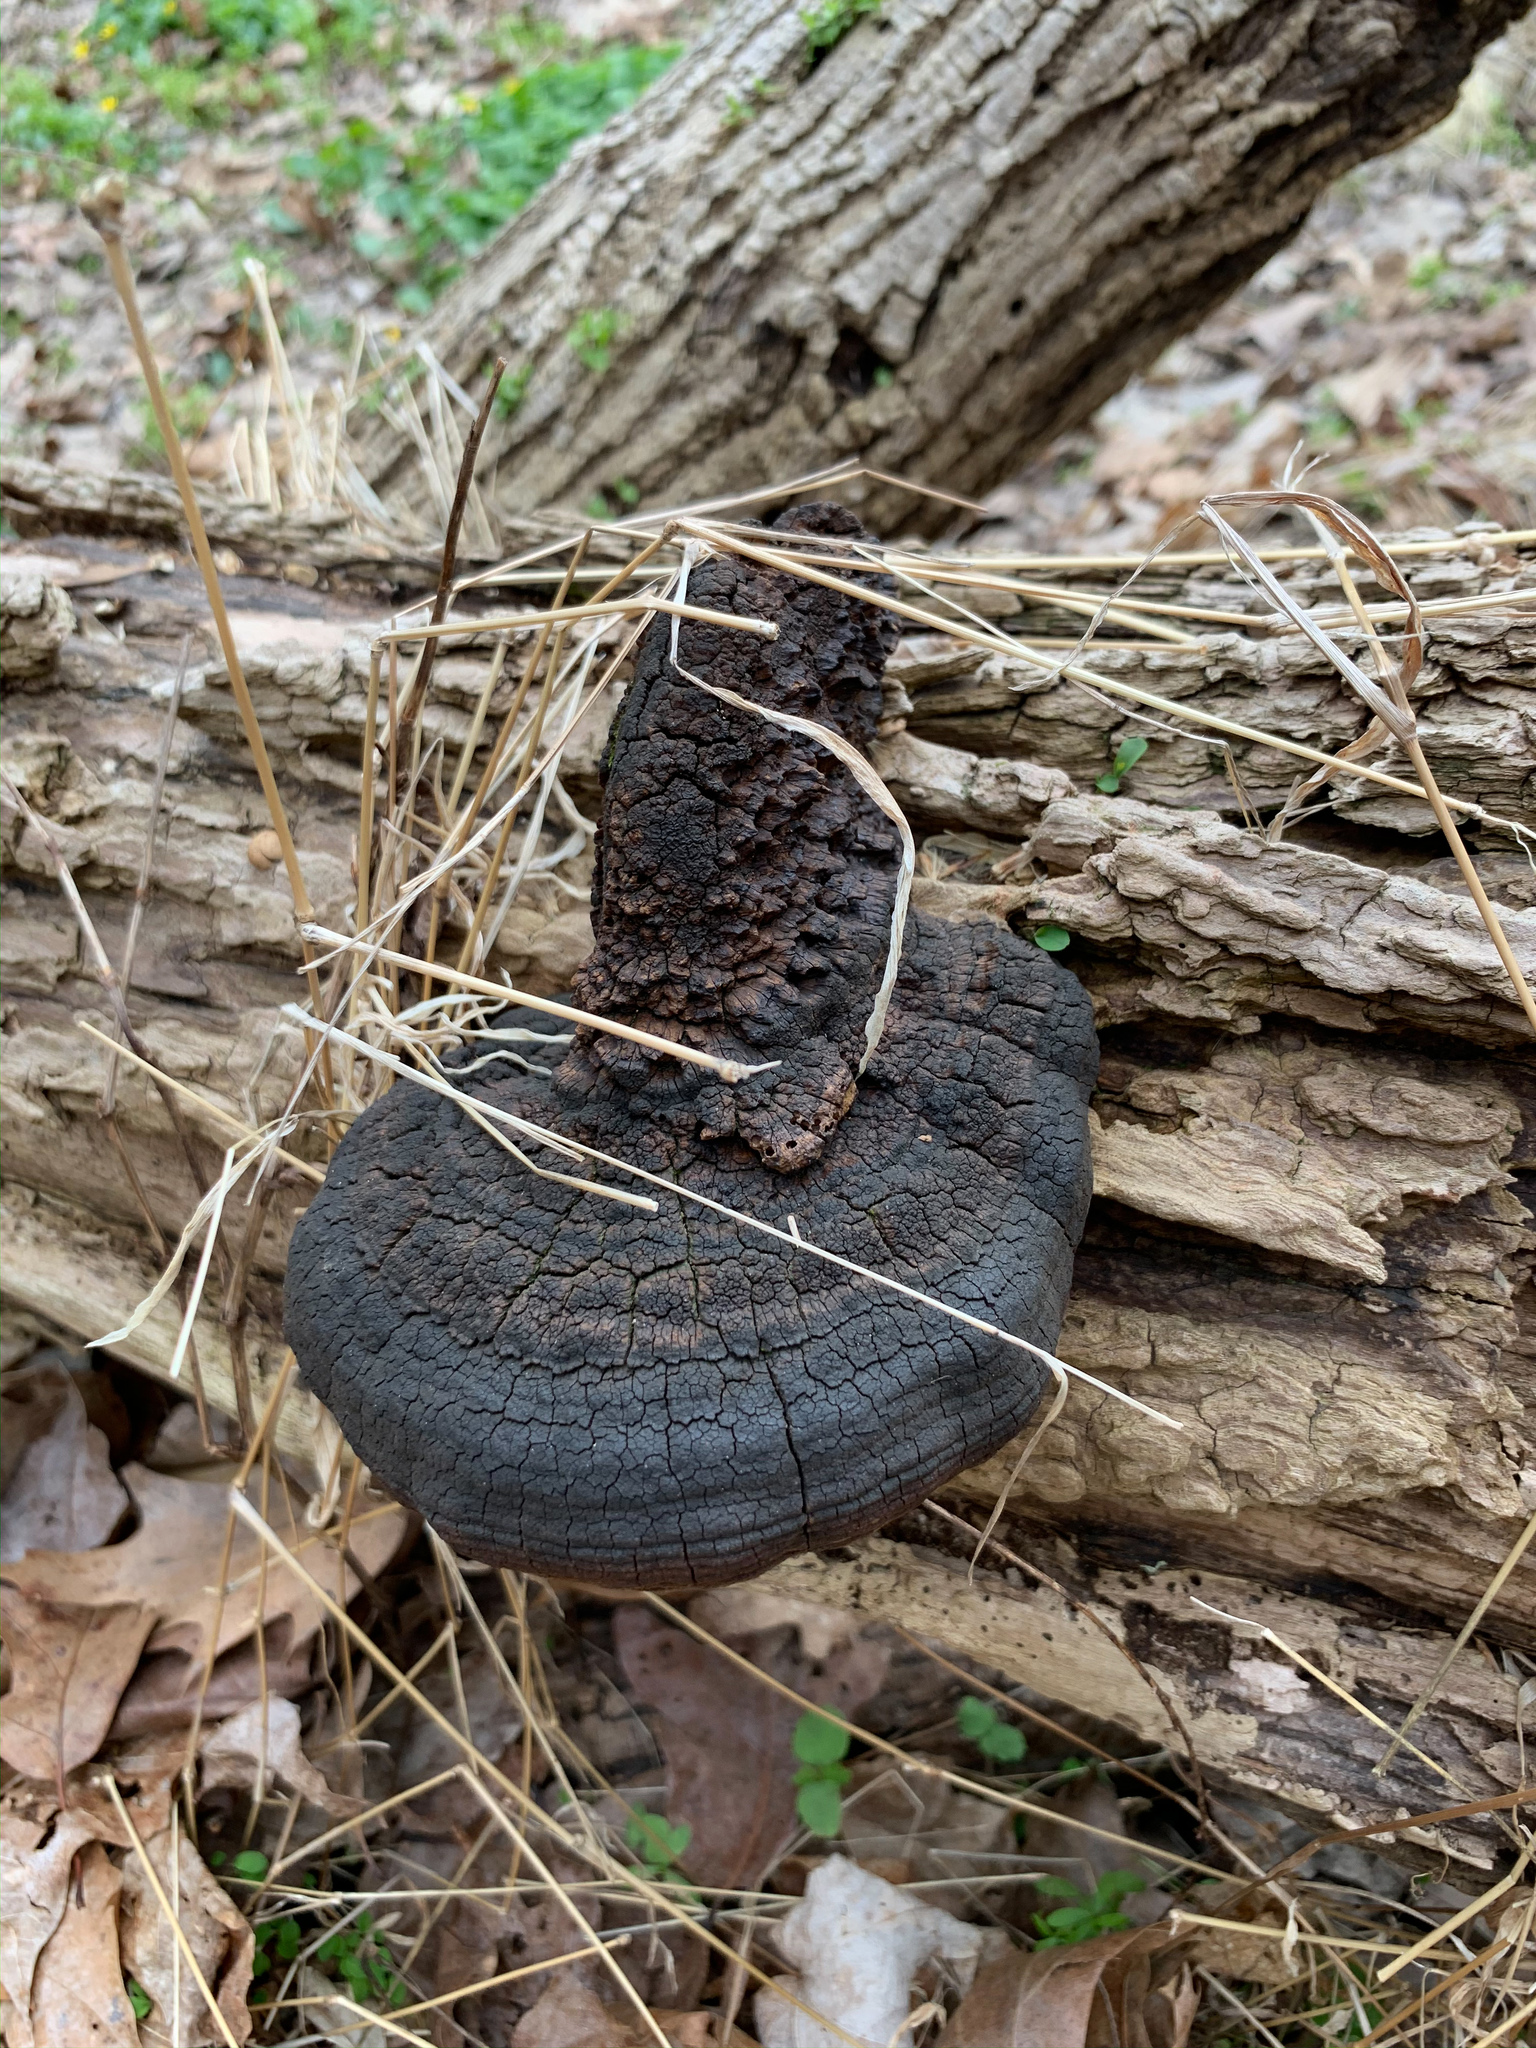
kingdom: Fungi
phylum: Basidiomycota
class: Agaricomycetes
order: Hymenochaetales
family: Hymenochaetaceae
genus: Phellinus
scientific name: Phellinus robiniae
